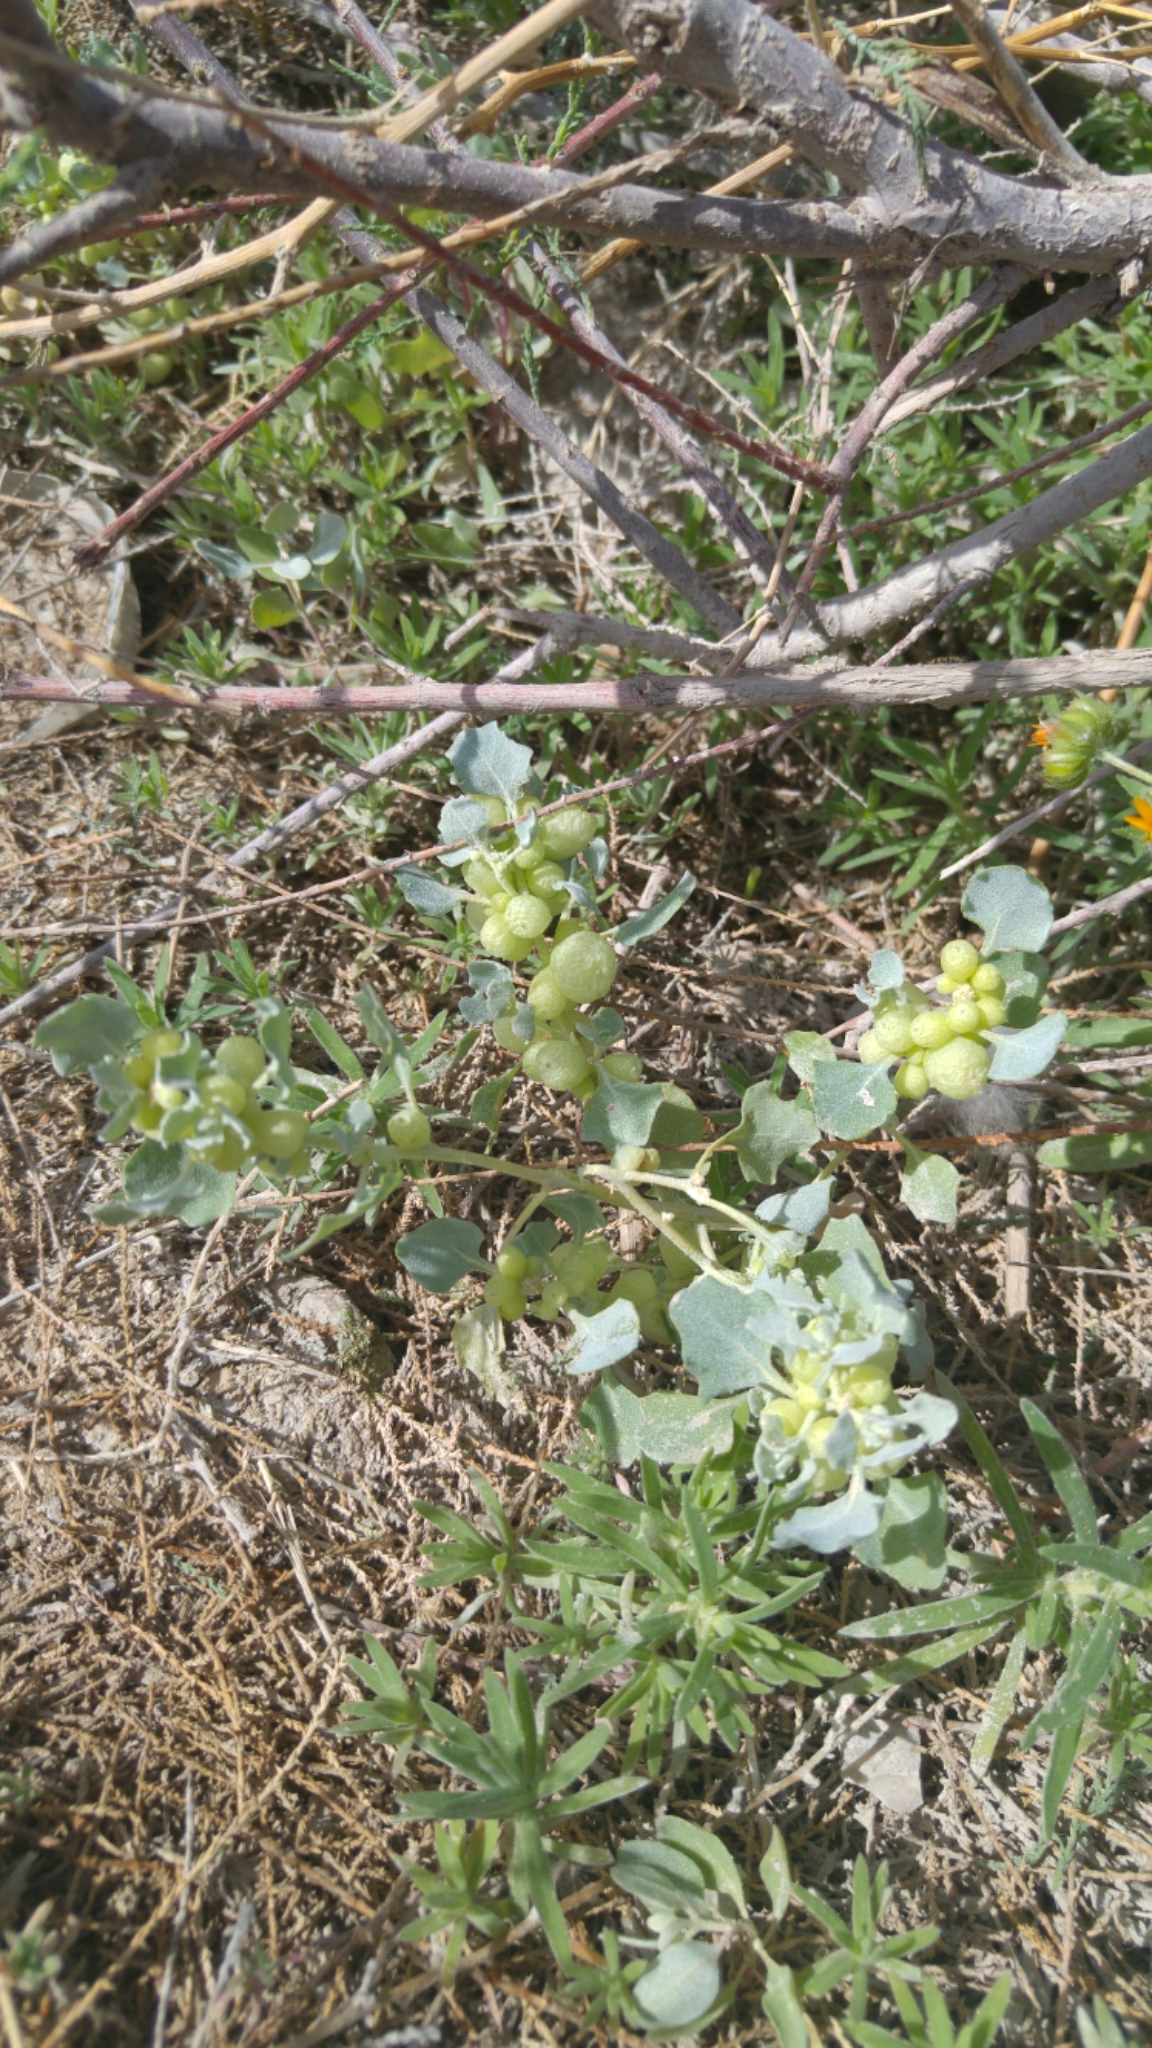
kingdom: Plantae
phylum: Tracheophyta
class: Magnoliopsida
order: Caryophyllales
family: Amaranthaceae
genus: Atriplex
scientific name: Atriplex holocarpa
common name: Pop saltbush
